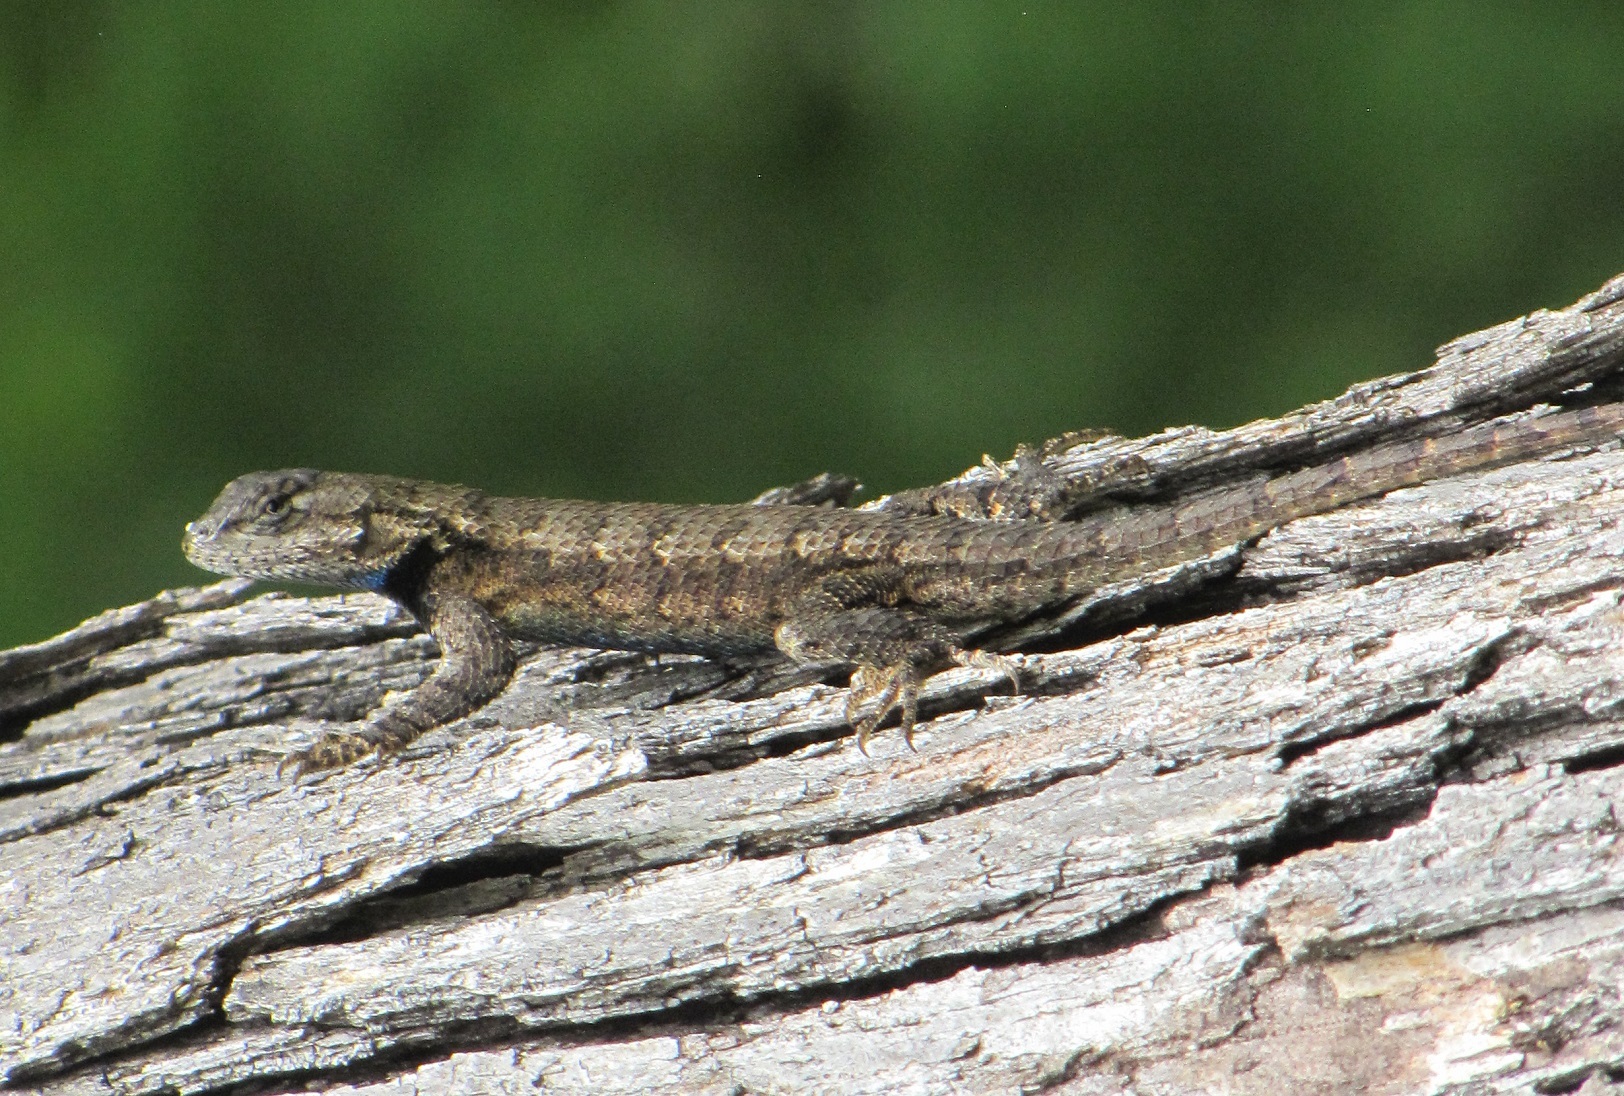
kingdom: Animalia
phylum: Chordata
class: Squamata
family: Phrynosomatidae
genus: Sceloporus
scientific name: Sceloporus undulatus
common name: Eastern fence lizard
